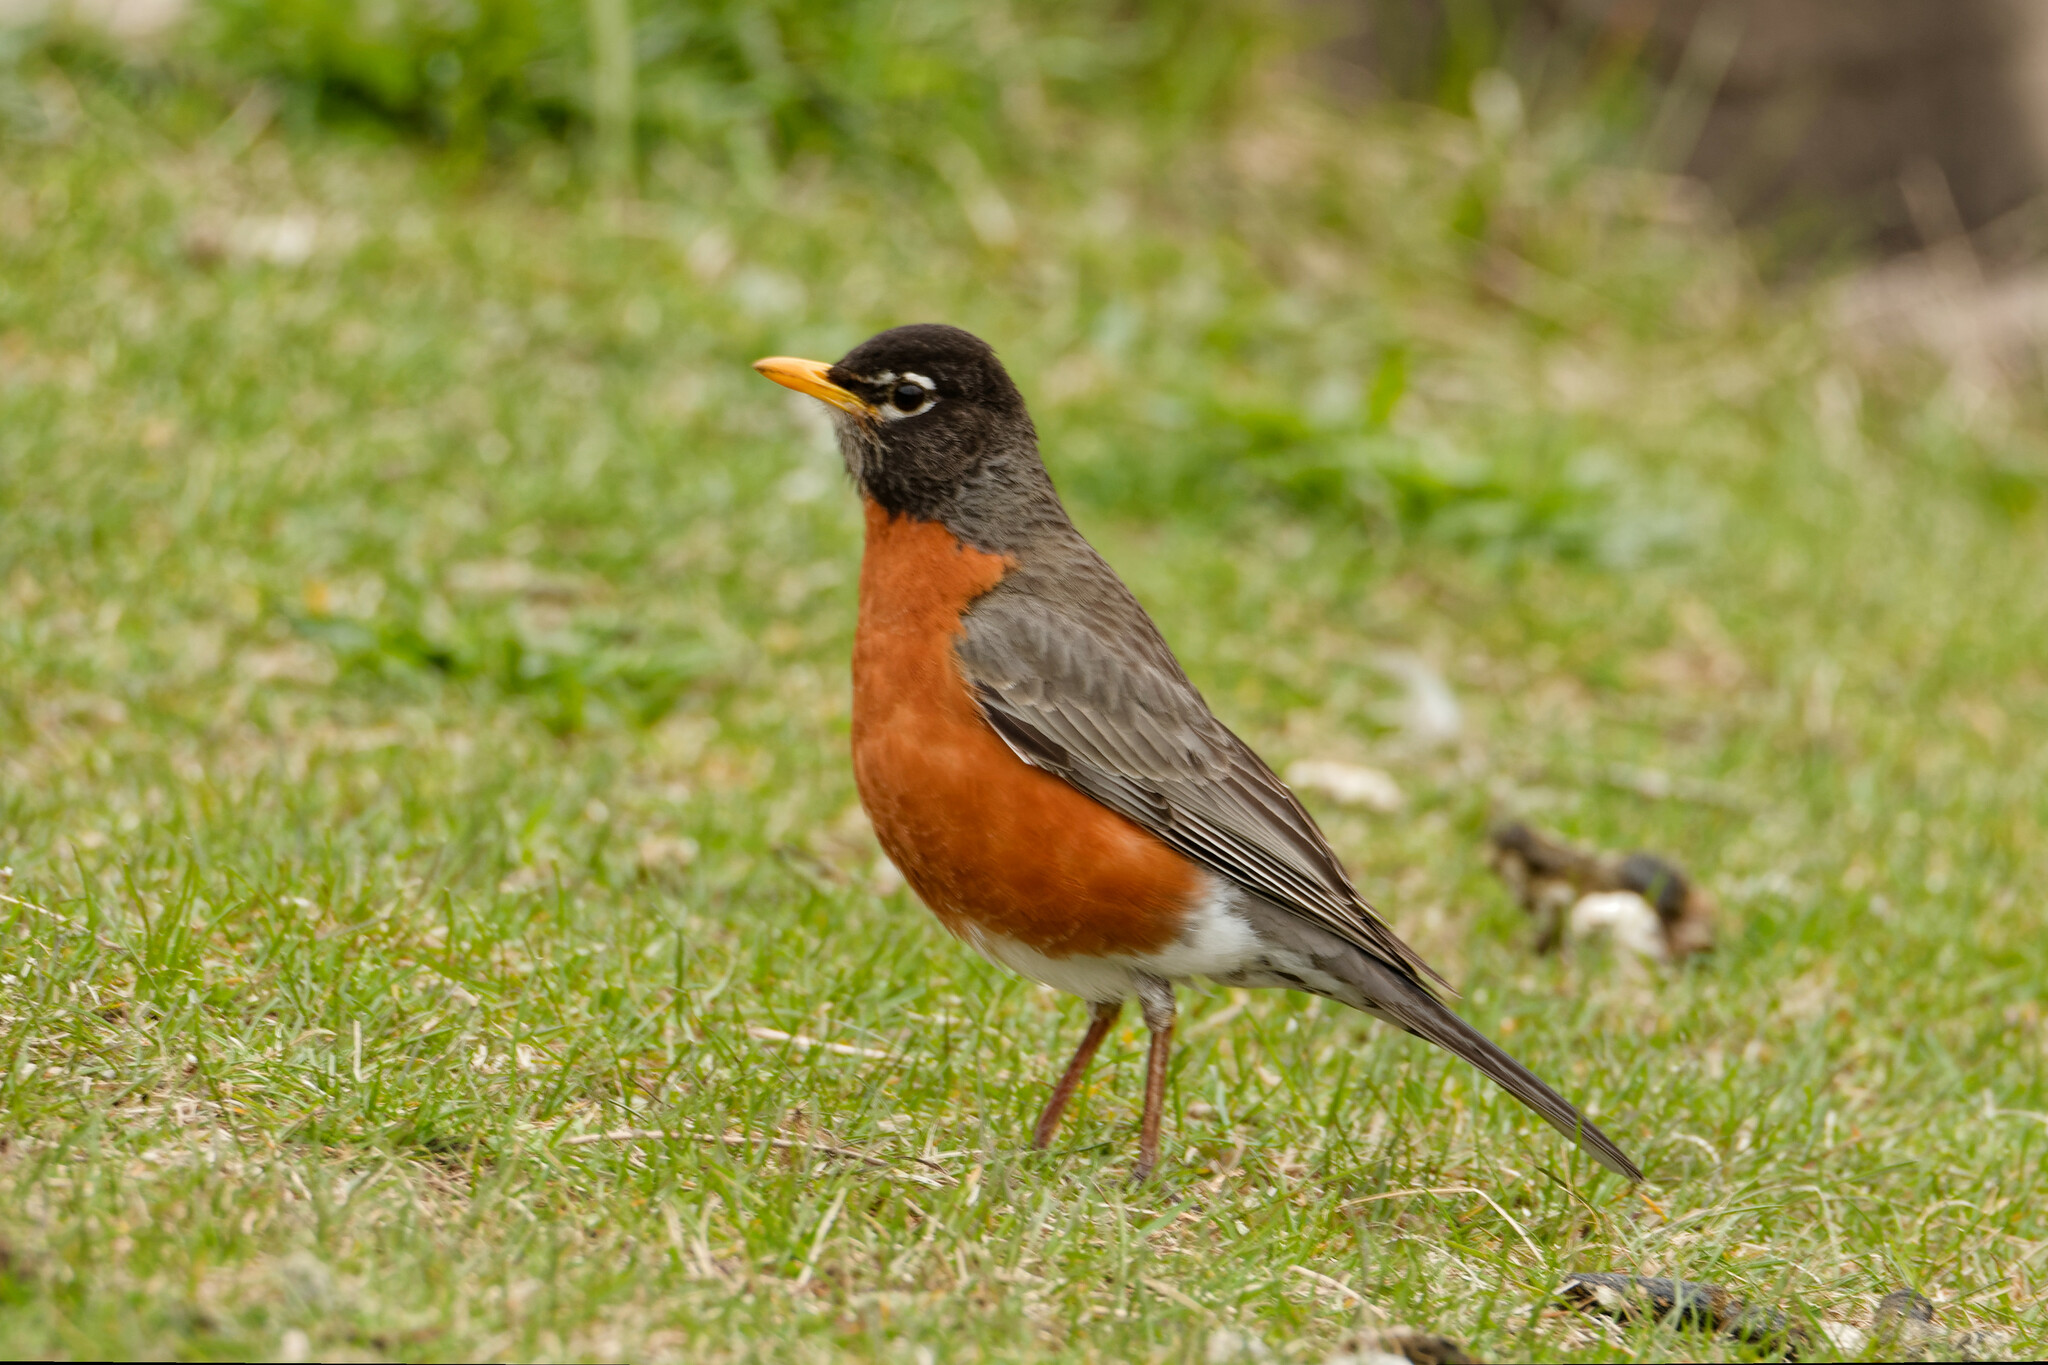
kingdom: Animalia
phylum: Chordata
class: Aves
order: Passeriformes
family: Turdidae
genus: Turdus
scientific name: Turdus migratorius
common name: American robin
